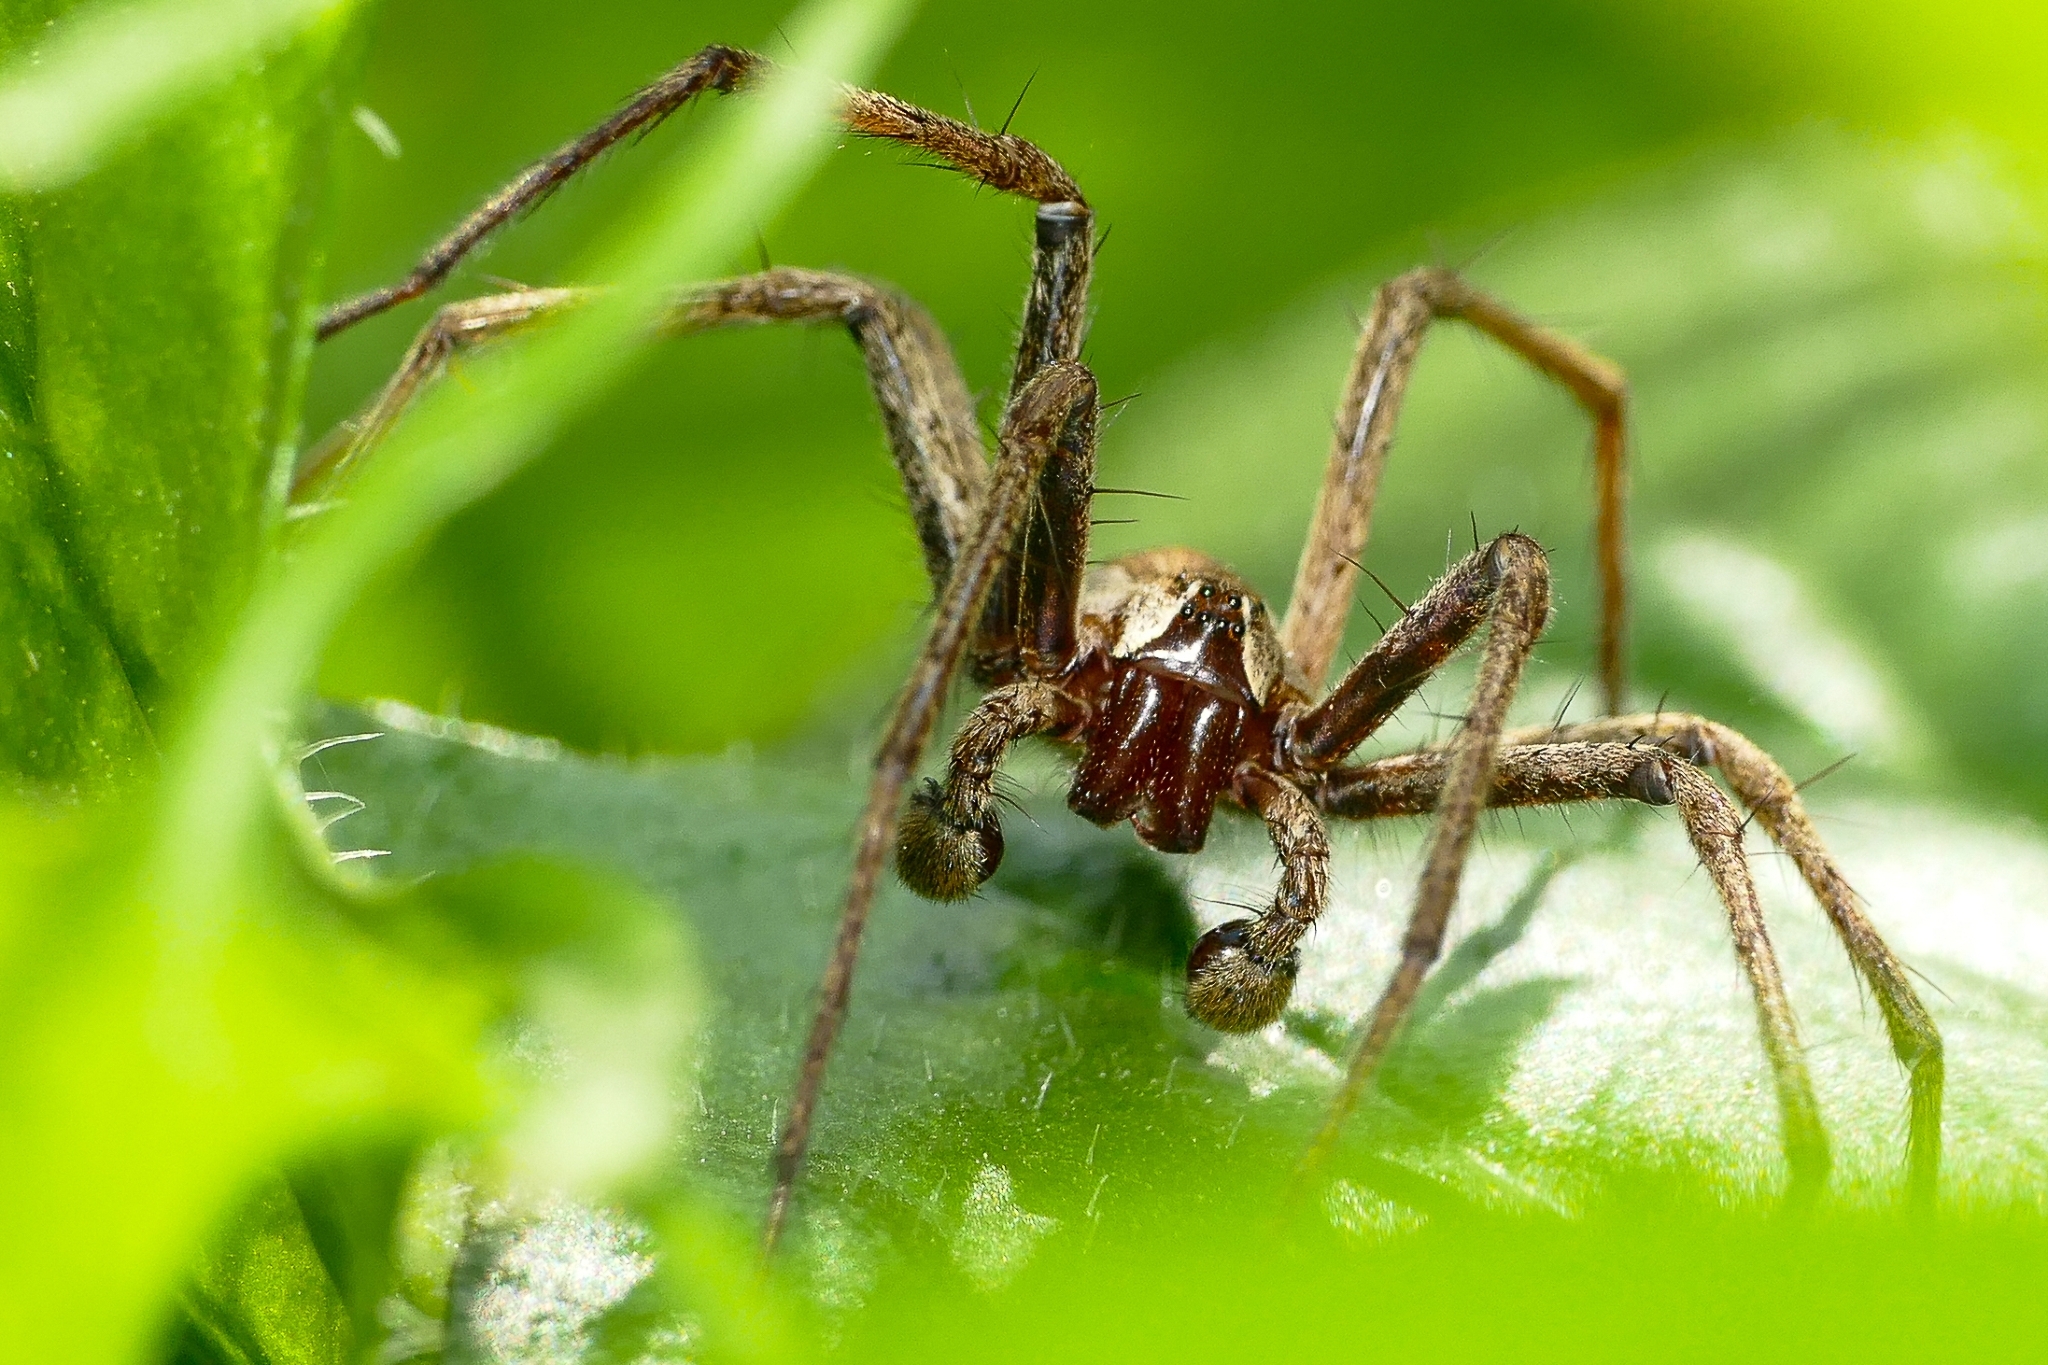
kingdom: Animalia
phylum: Arthropoda
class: Arachnida
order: Araneae
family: Pisauridae
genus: Pisaura
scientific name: Pisaura mirabilis
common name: Tent spider
